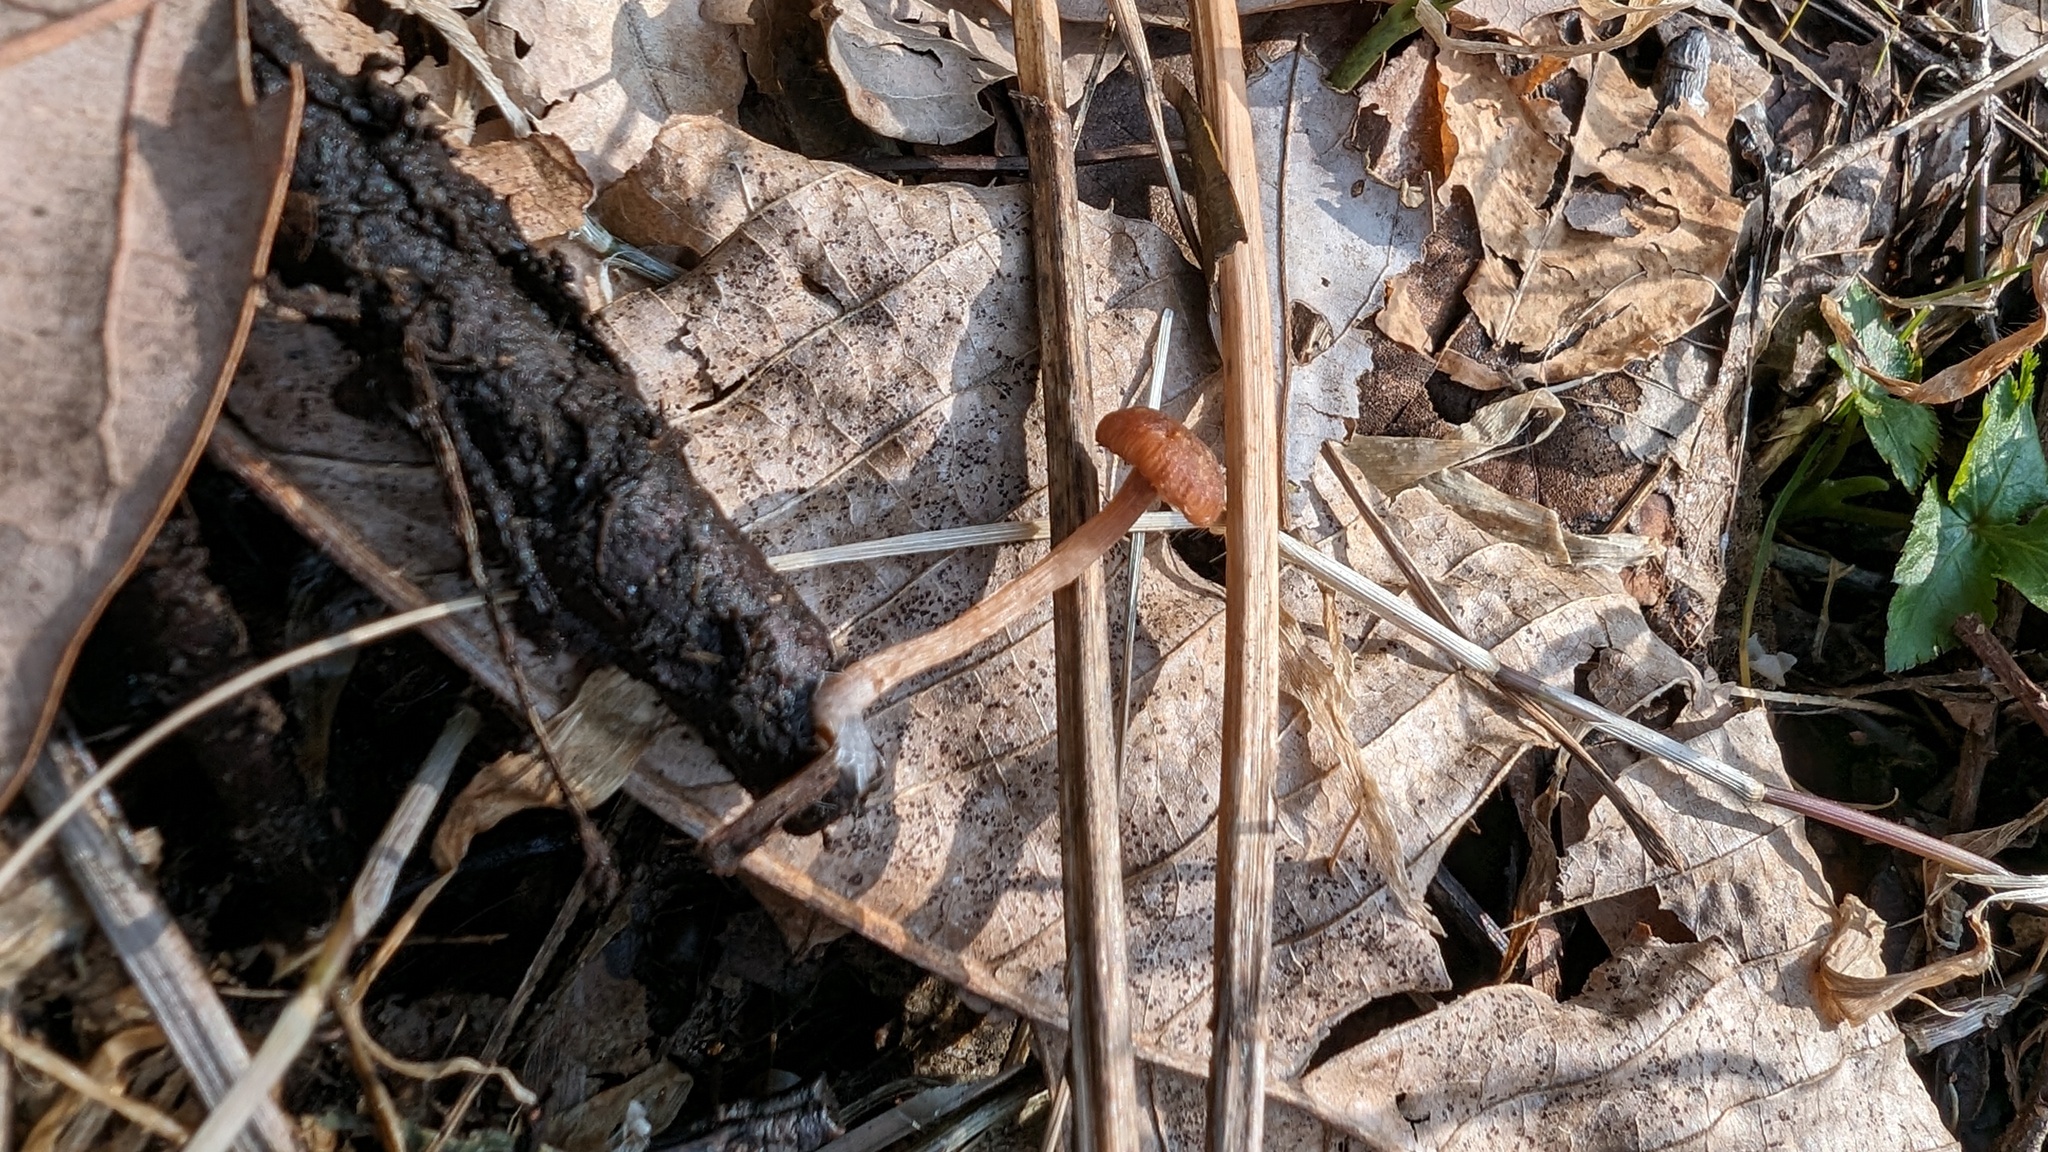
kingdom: Fungi
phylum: Basidiomycota
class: Agaricomycetes
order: Agaricales
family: Tubariaceae
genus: Tubaria
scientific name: Tubaria furfuracea
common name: Scurfy twiglet
